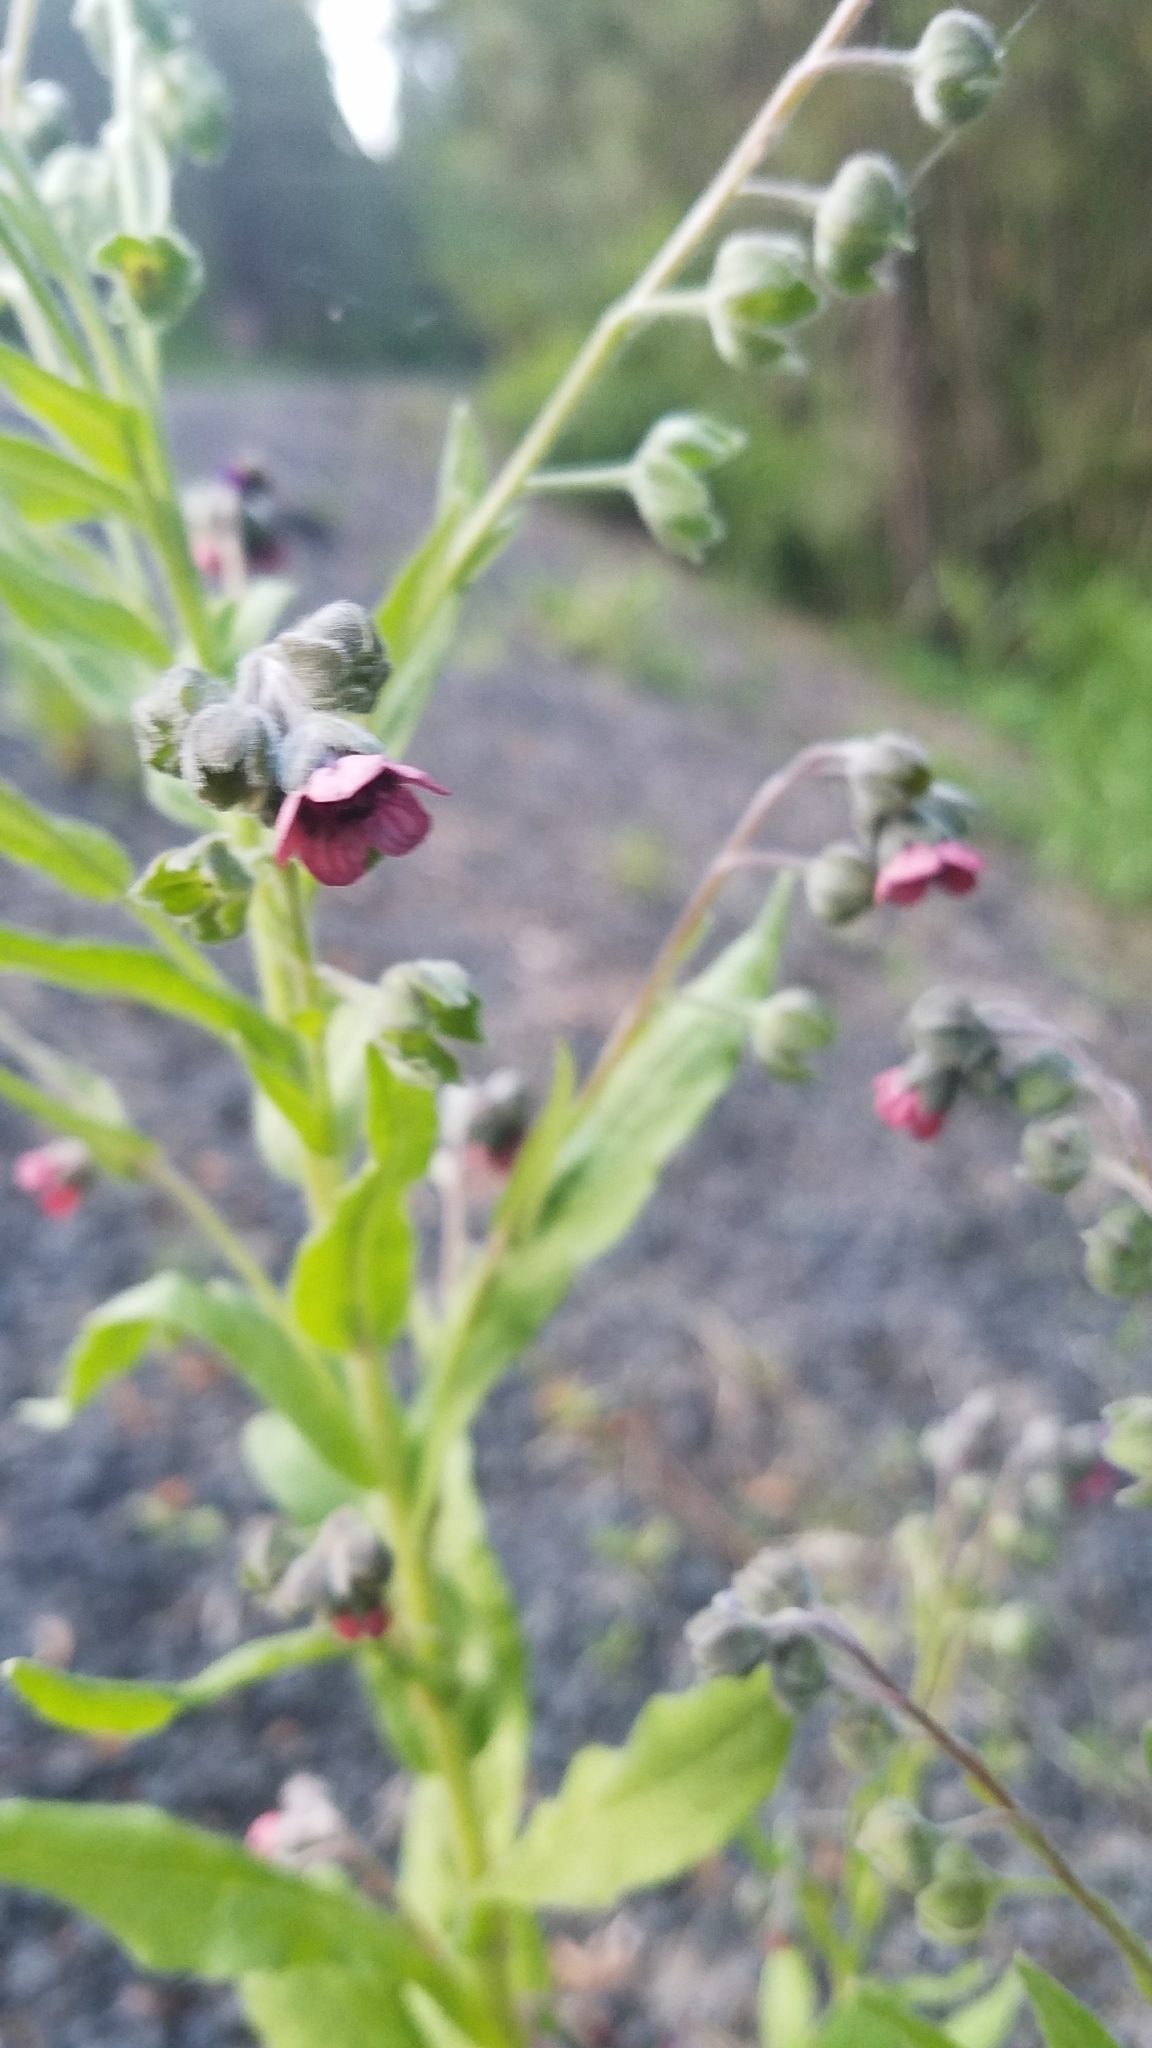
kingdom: Plantae
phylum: Tracheophyta
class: Magnoliopsida
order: Boraginales
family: Boraginaceae
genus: Cynoglossum
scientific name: Cynoglossum officinale
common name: Hound's-tongue
